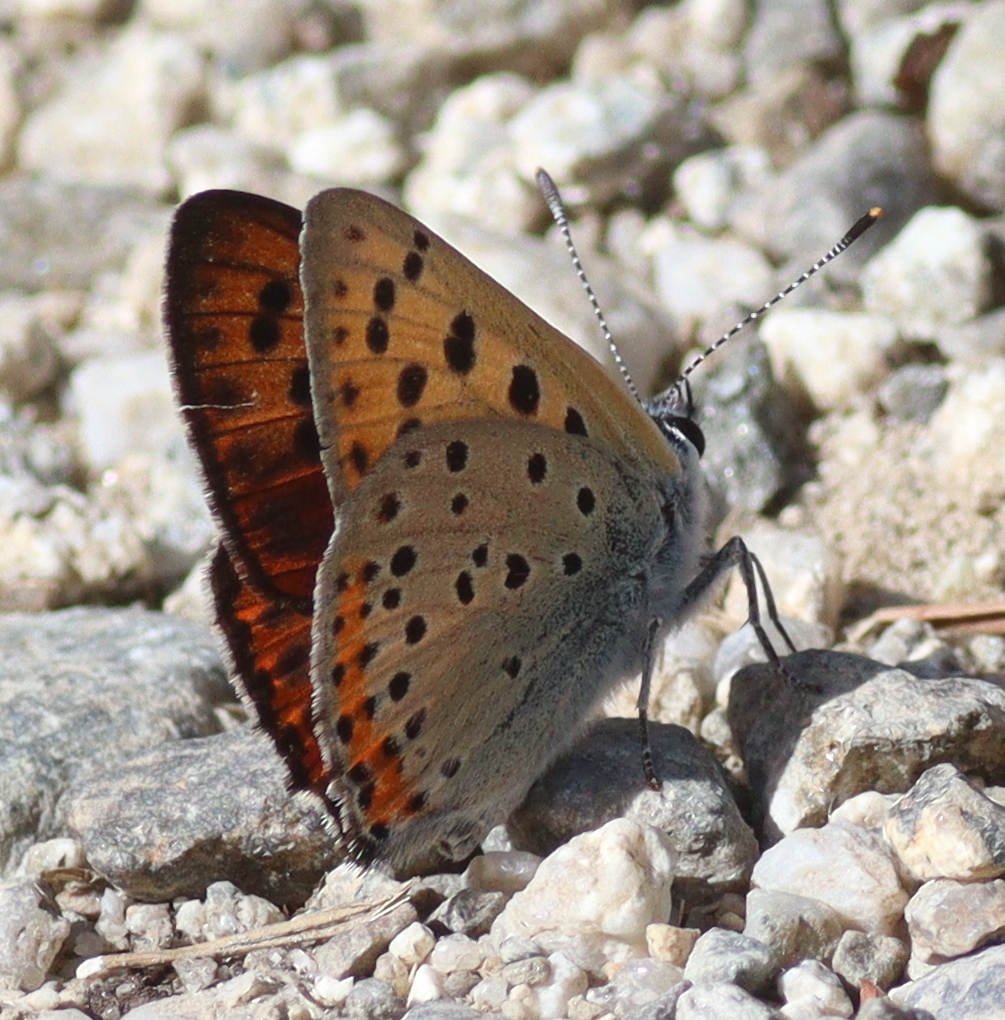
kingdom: Animalia
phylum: Arthropoda
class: Insecta
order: Lepidoptera
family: Lycaenidae
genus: Lycaena
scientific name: Lycaena alciphron
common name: Purple-shot copper
